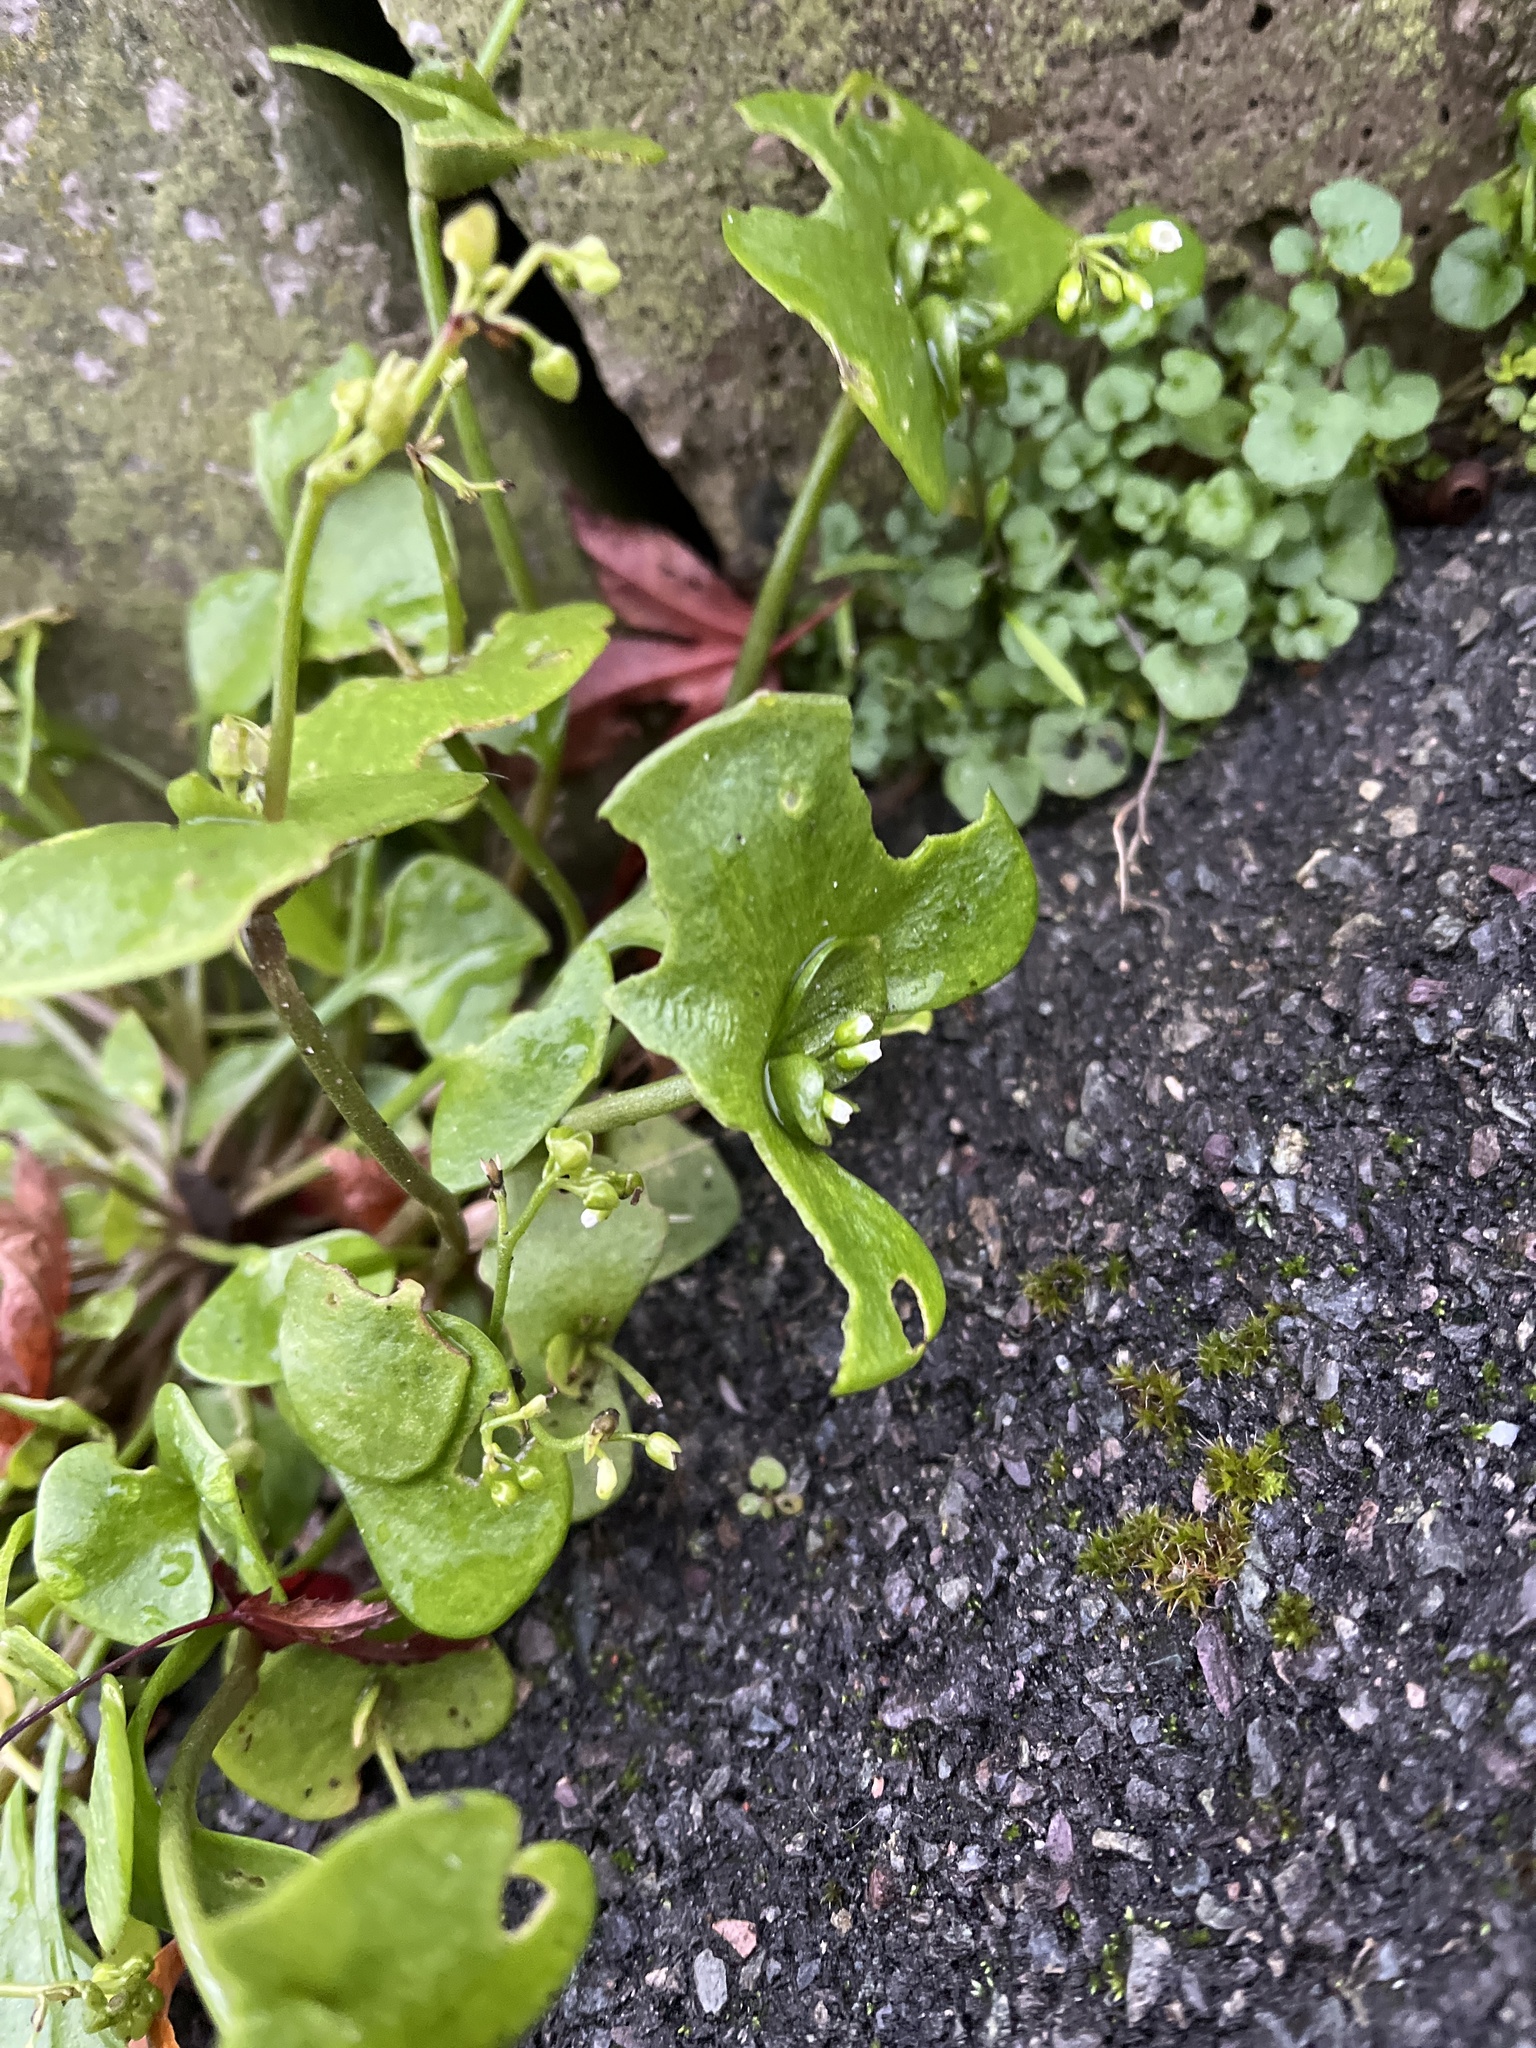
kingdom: Plantae
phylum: Tracheophyta
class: Magnoliopsida
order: Caryophyllales
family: Montiaceae
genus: Claytonia
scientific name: Claytonia perfoliata
